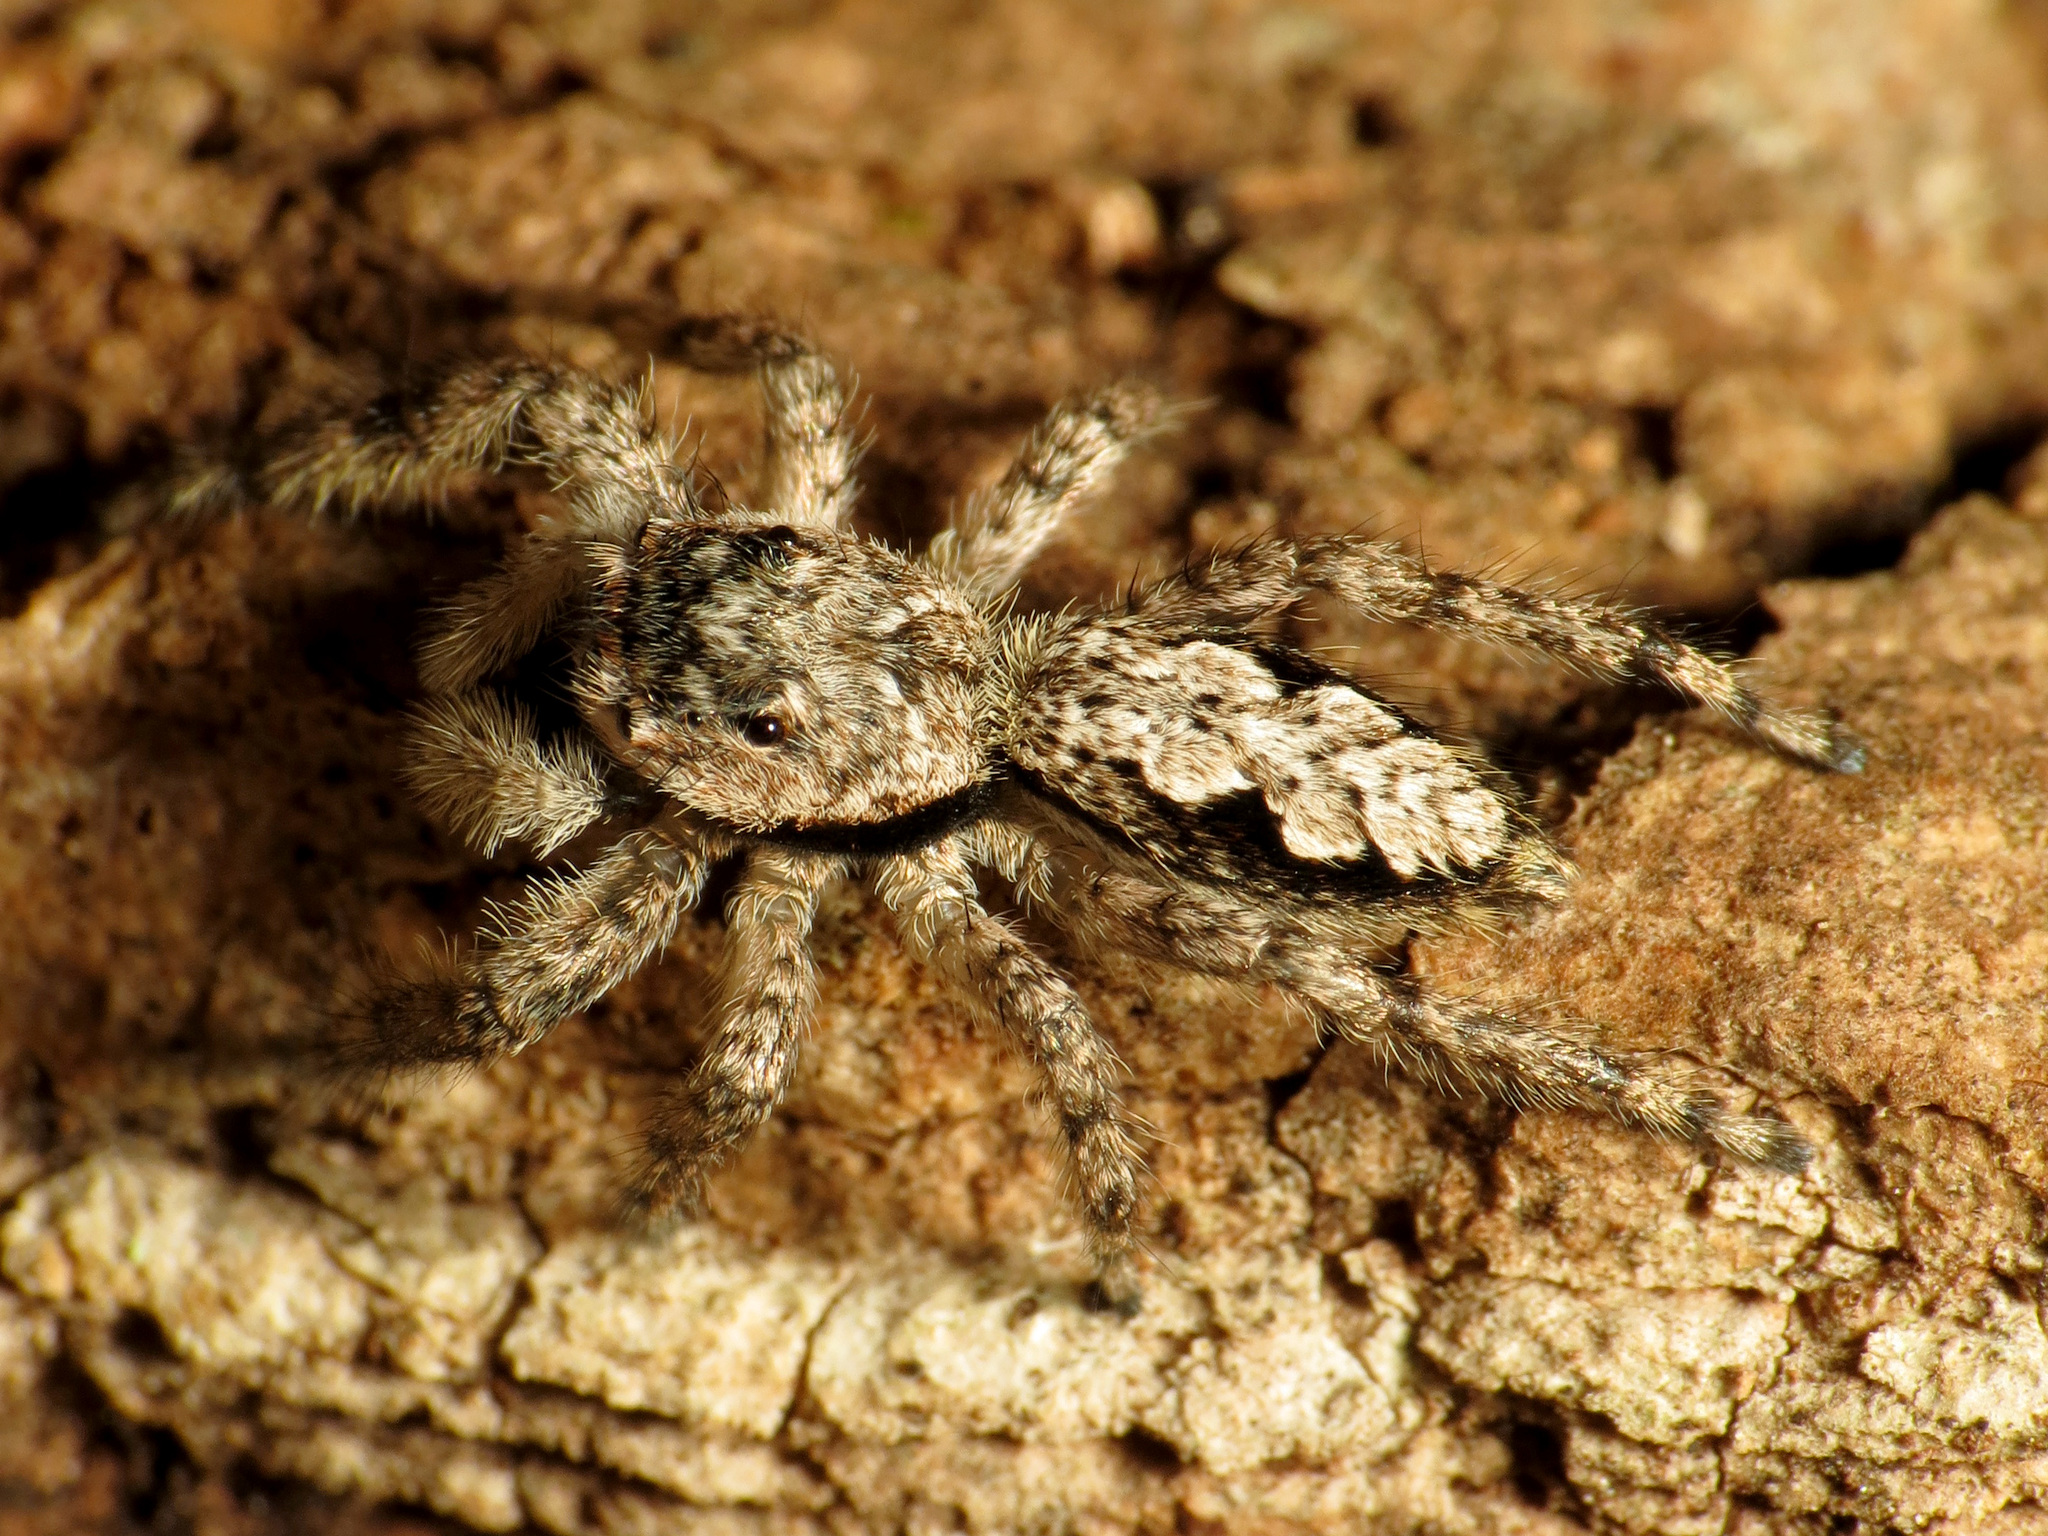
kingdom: Animalia
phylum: Arthropoda
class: Arachnida
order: Araneae
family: Salticidae
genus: Platycryptus
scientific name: Platycryptus undatus
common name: Tan jumping spider
